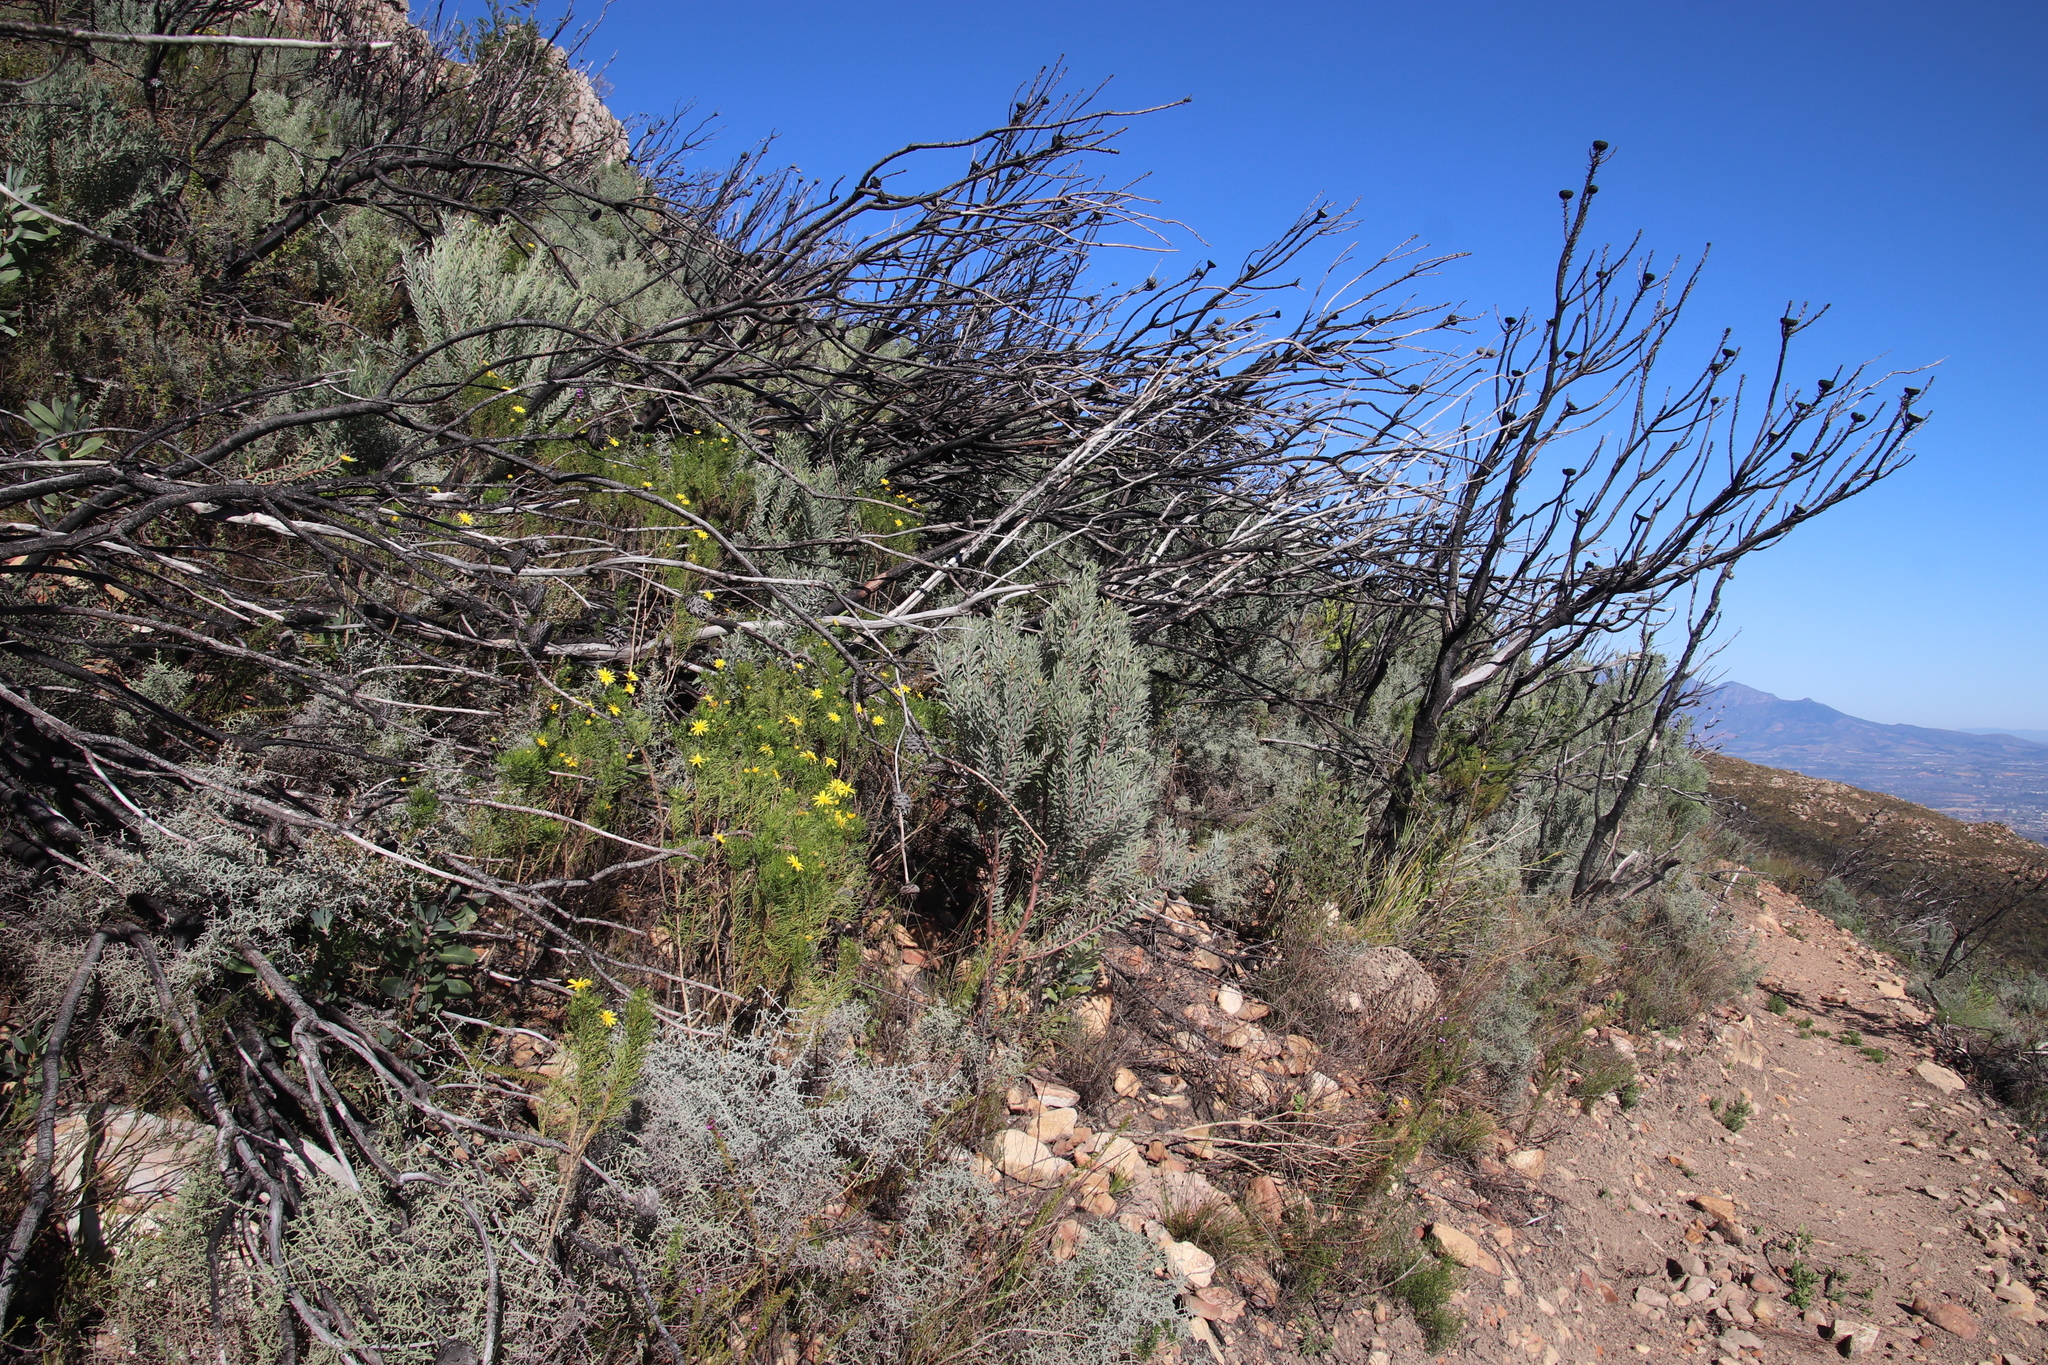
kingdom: Plantae
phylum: Tracheophyta
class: Magnoliopsida
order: Proteales
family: Proteaceae
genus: Leucadendron
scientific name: Leucadendron rubrum
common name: Spinning top
